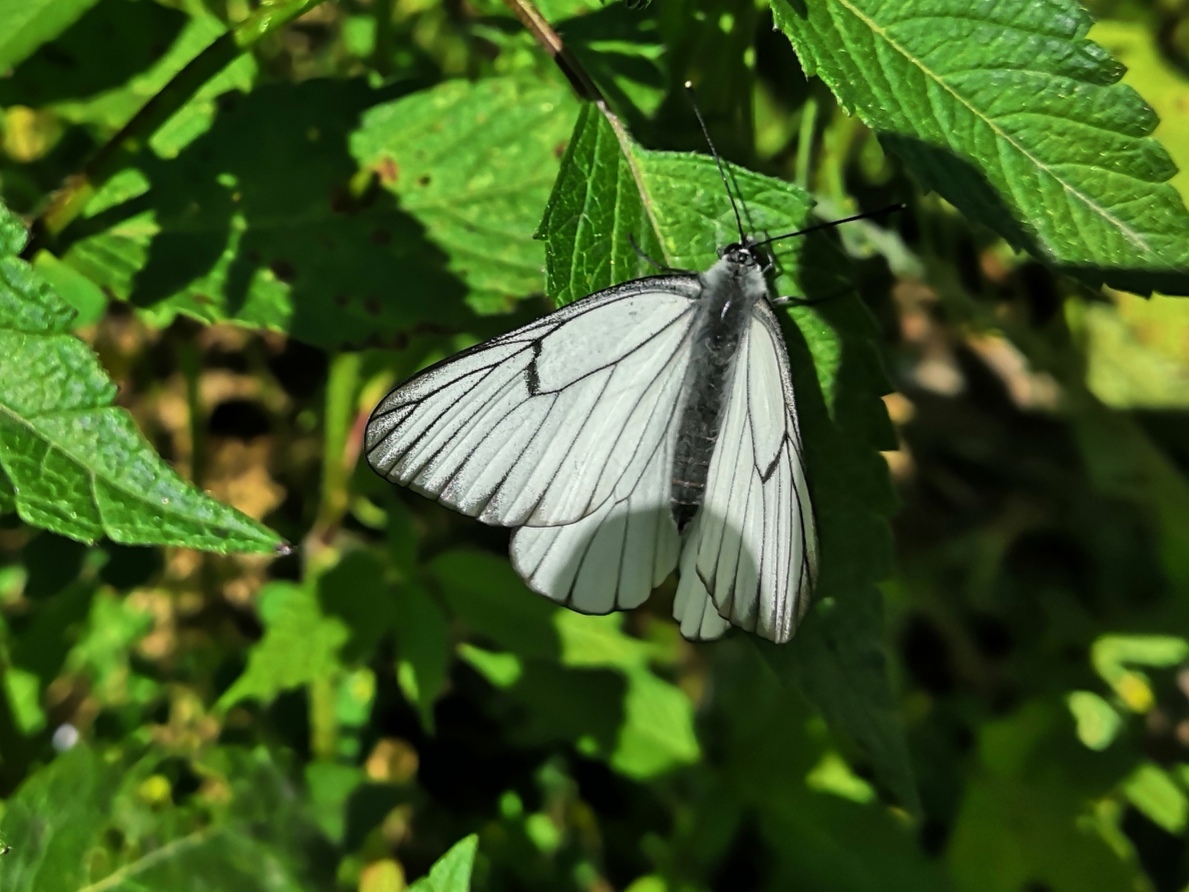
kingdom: Animalia
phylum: Arthropoda
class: Insecta
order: Lepidoptera
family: Pieridae
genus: Aporia
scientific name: Aporia crataegi
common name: Black-veined white
